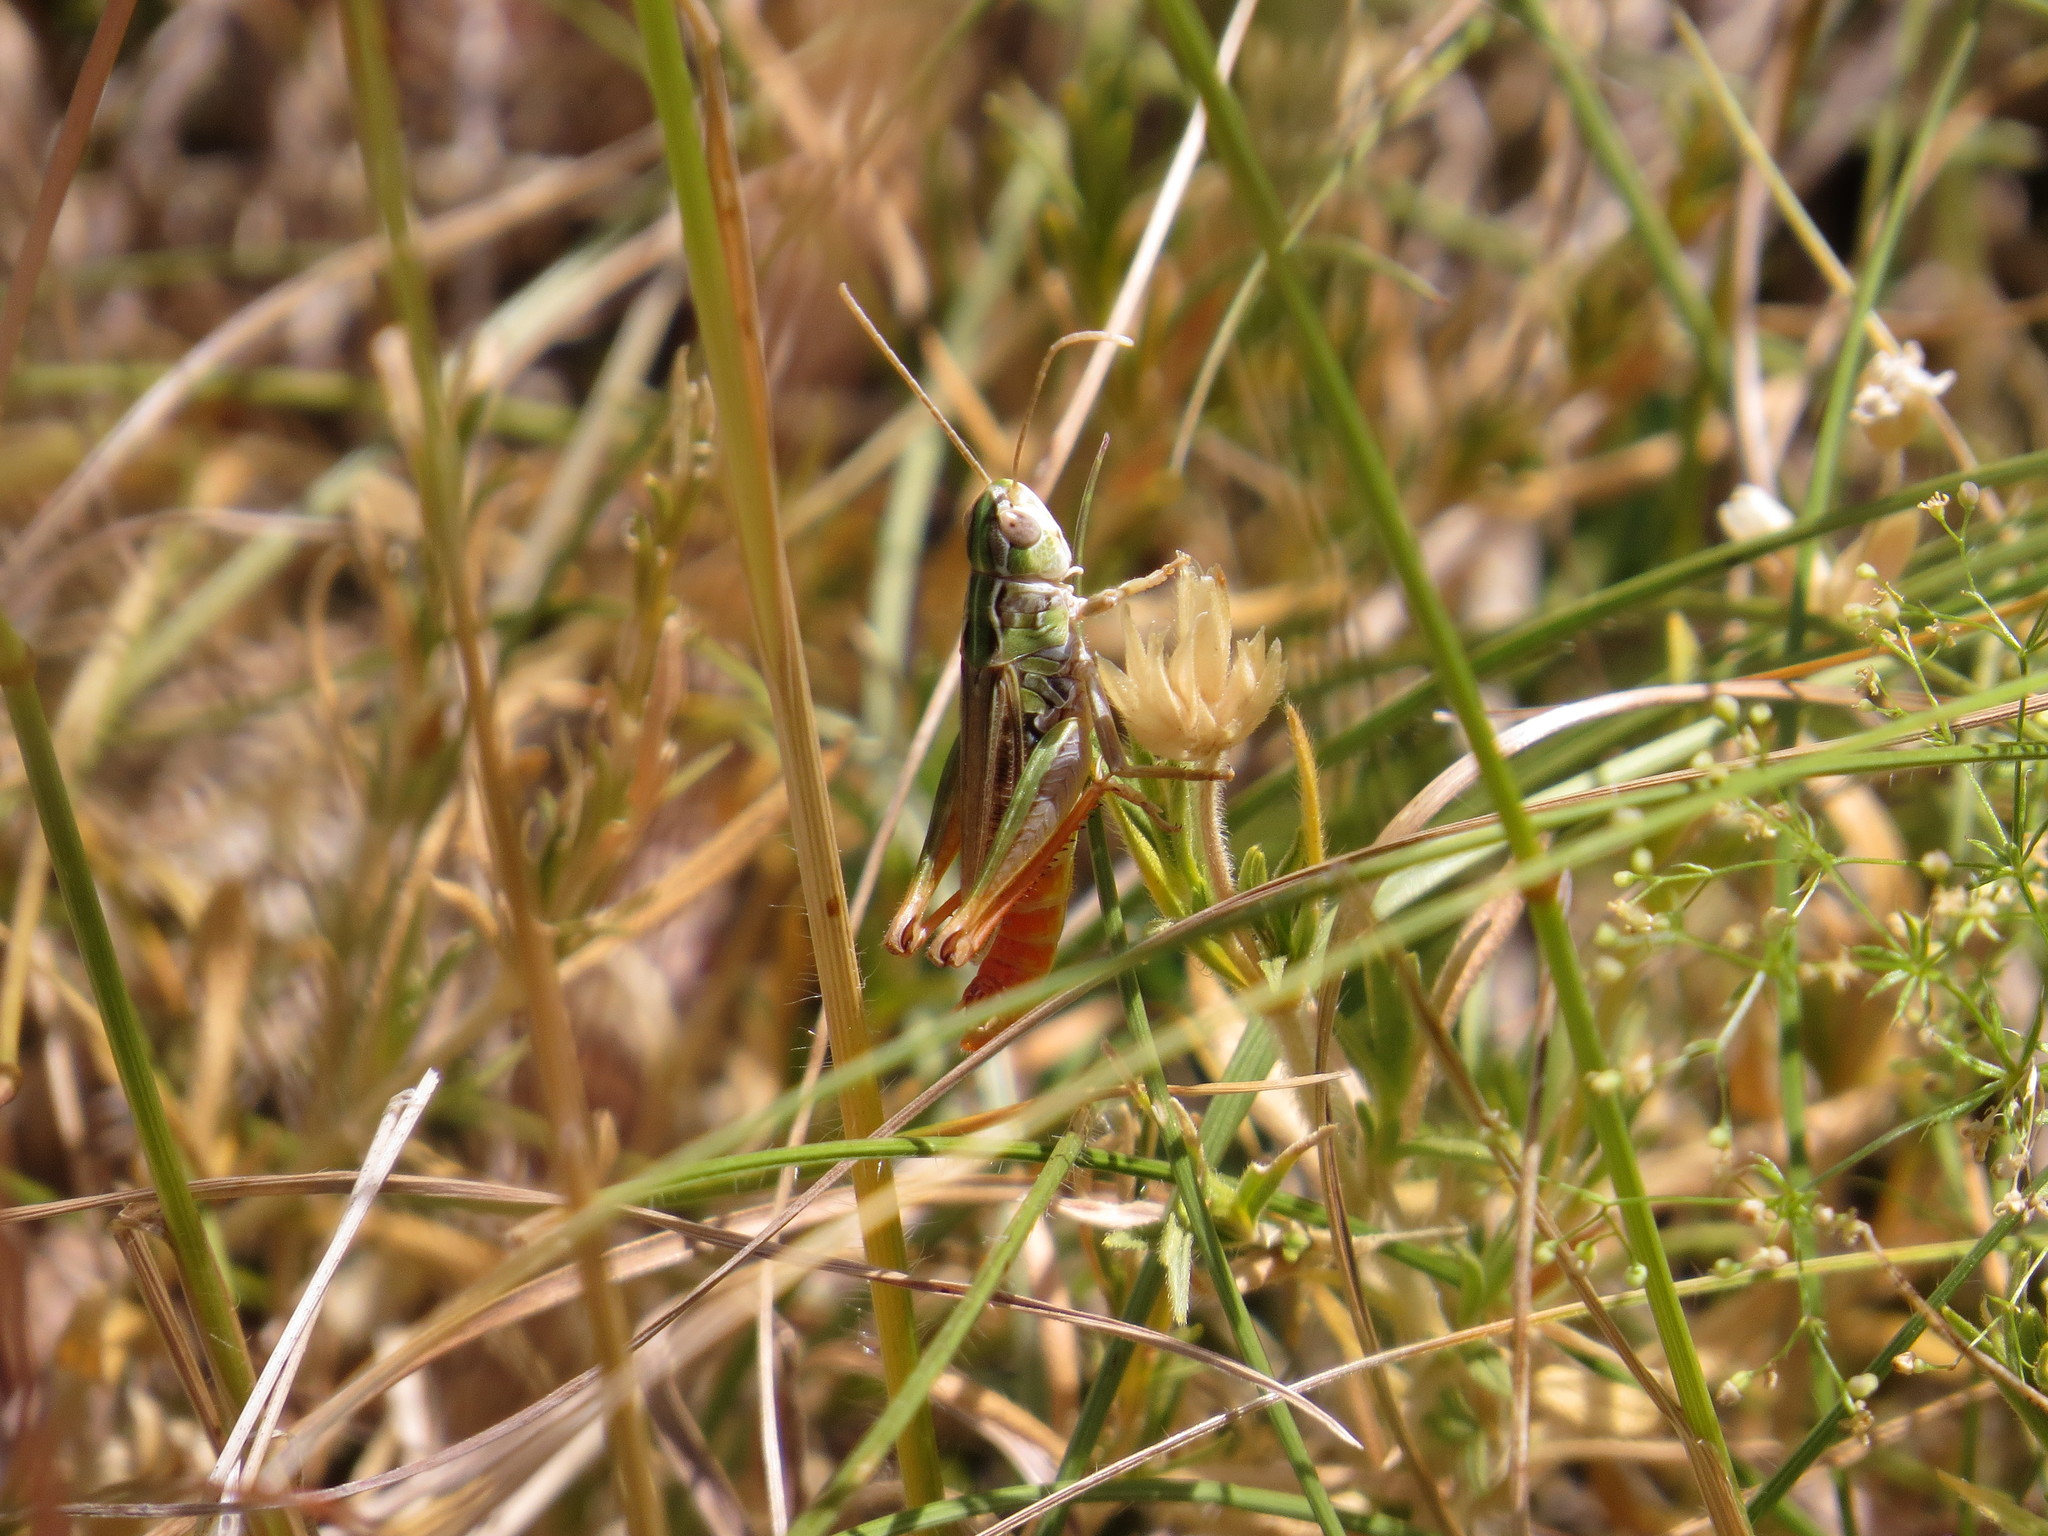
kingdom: Animalia
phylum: Arthropoda
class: Insecta
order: Orthoptera
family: Acrididae
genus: Stenobothrus
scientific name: Stenobothrus nigromaculatus
